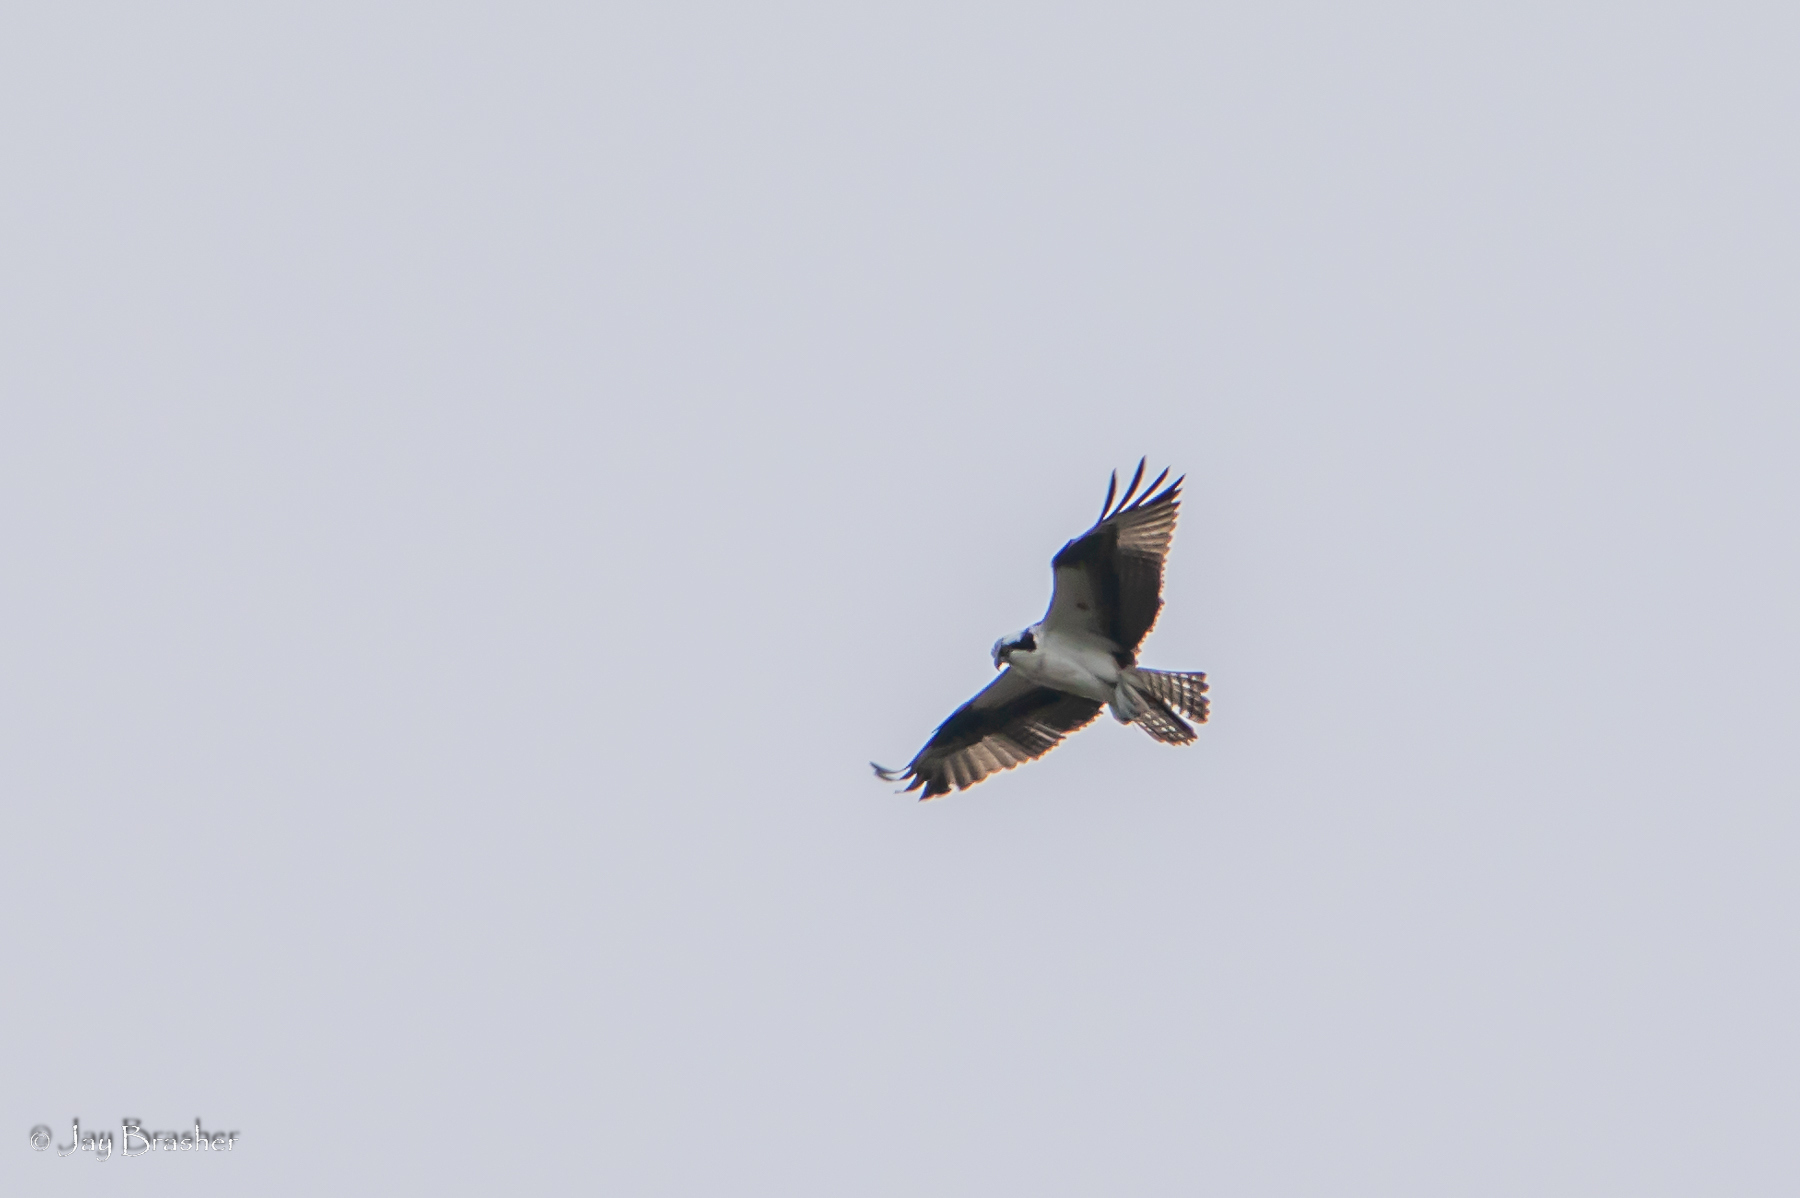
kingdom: Animalia
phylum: Chordata
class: Aves
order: Accipitriformes
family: Pandionidae
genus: Pandion
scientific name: Pandion haliaetus
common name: Osprey
